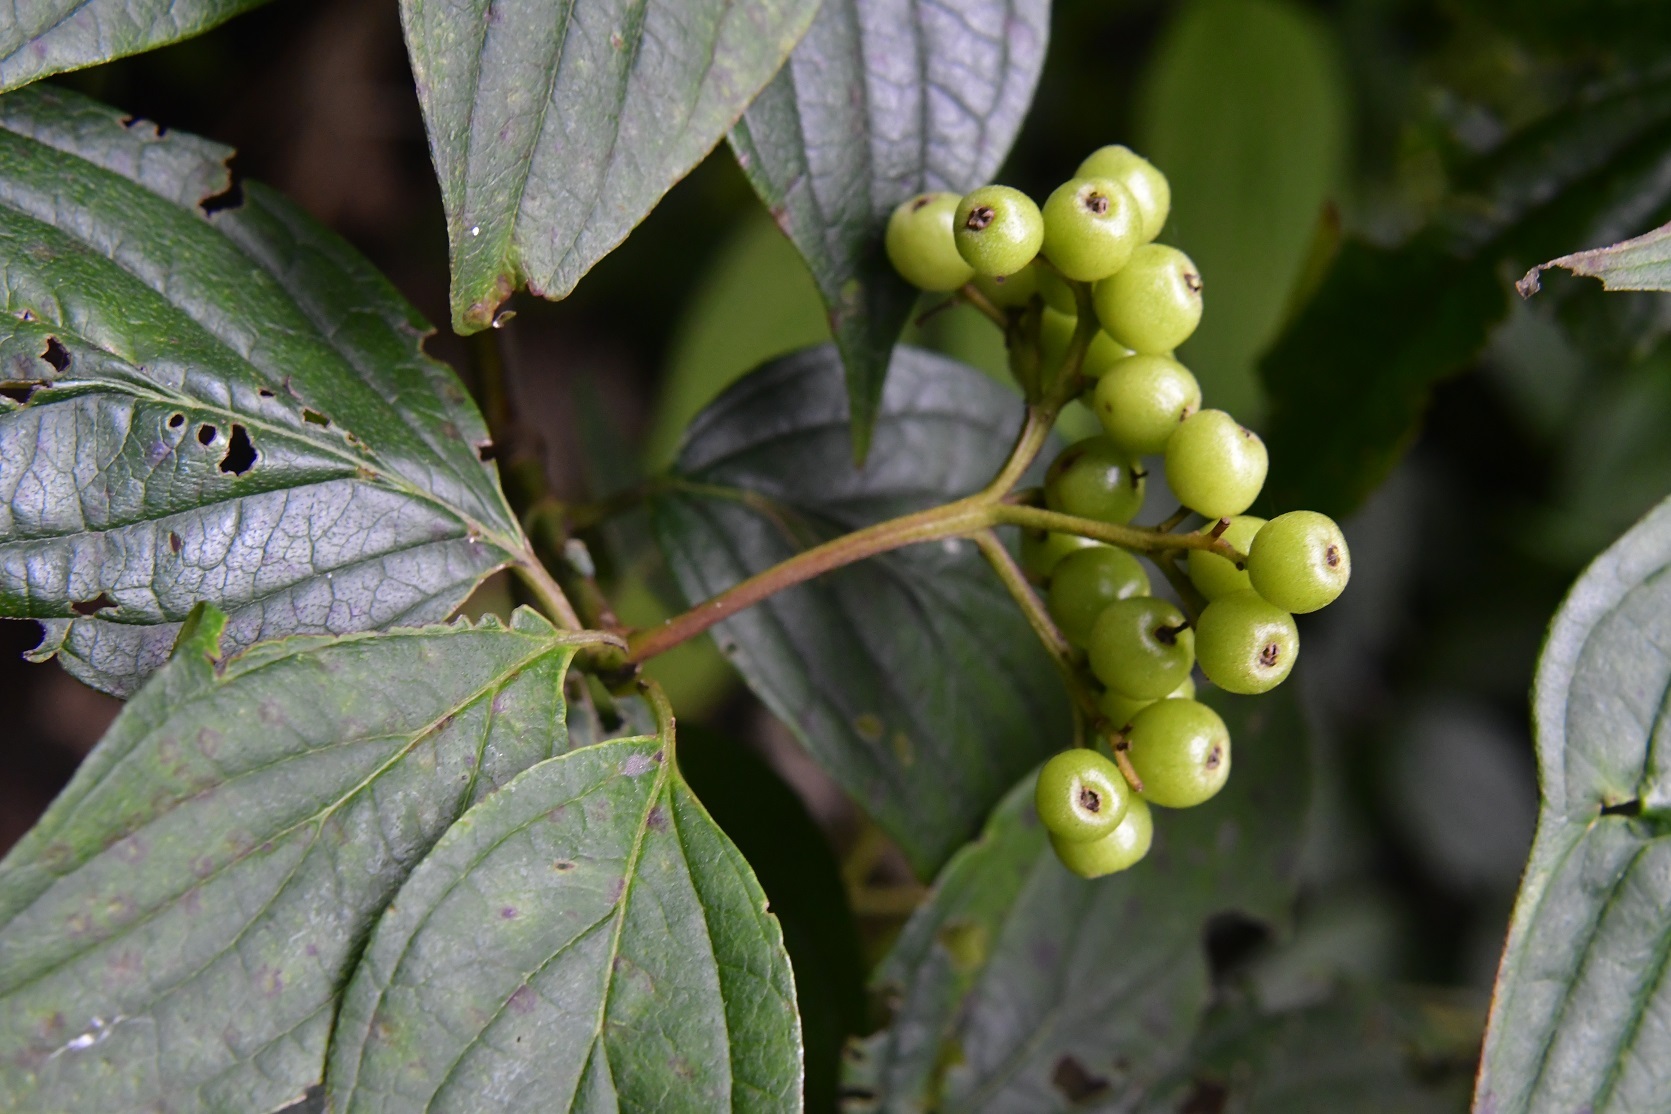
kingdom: Plantae
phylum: Tracheophyta
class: Magnoliopsida
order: Cornales
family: Cornaceae
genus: Cornus
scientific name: Cornus excelsa
